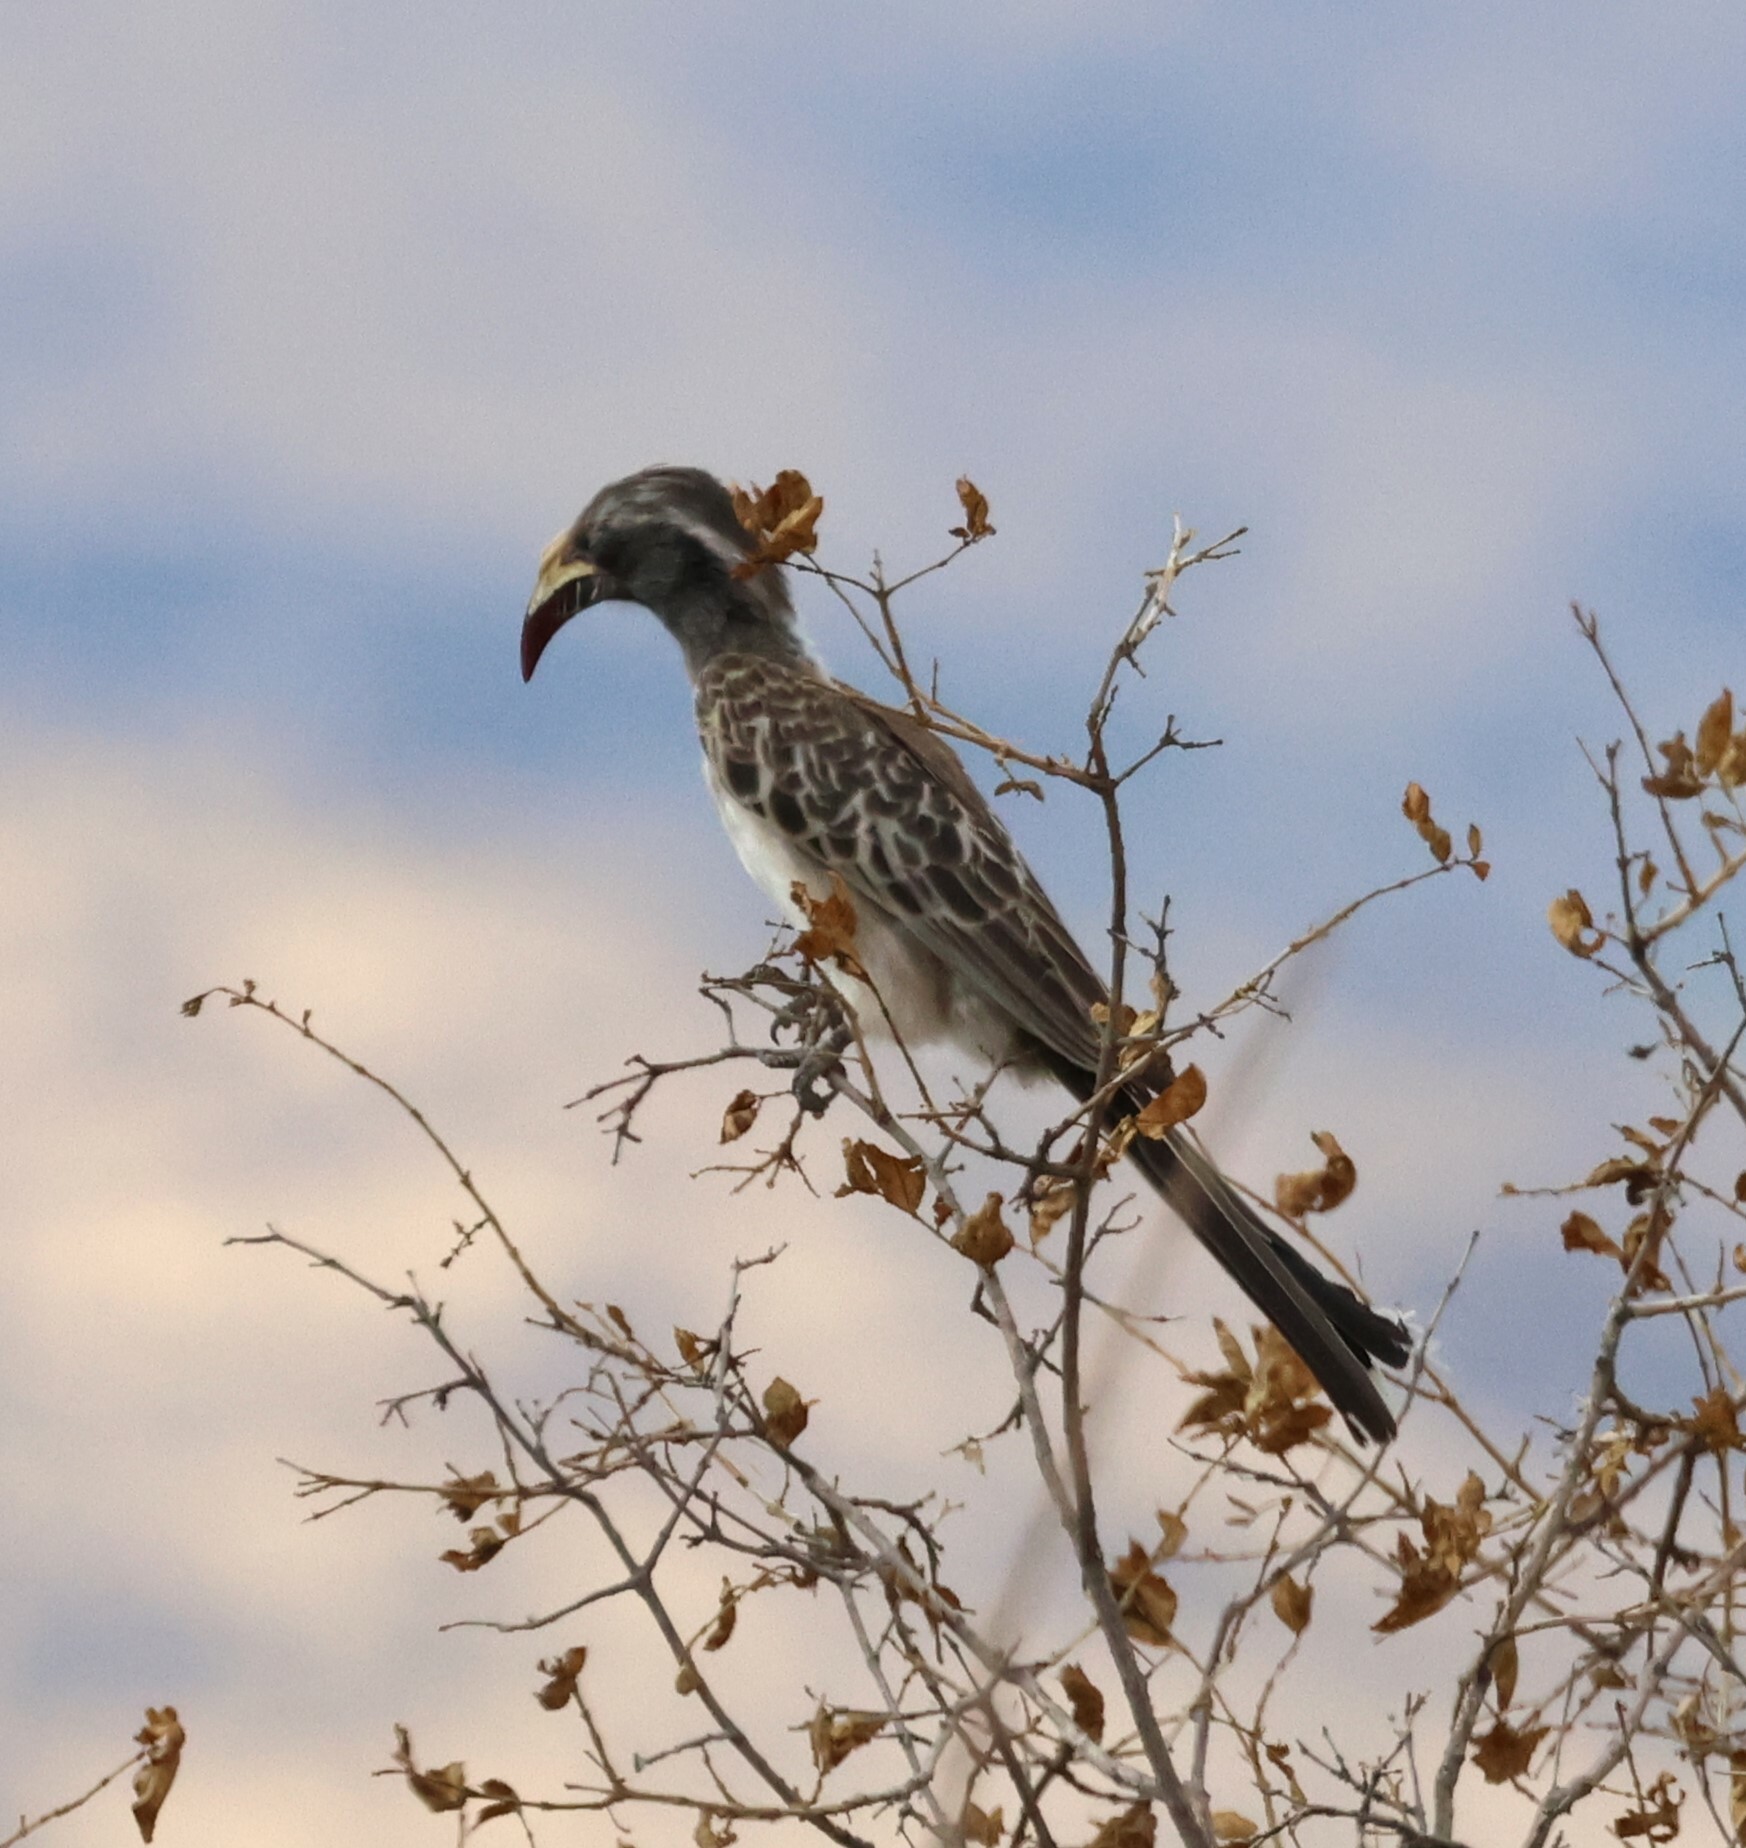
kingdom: Animalia
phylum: Chordata
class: Aves
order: Bucerotiformes
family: Bucerotidae
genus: Lophoceros
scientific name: Lophoceros nasutus
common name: African grey hornbill
